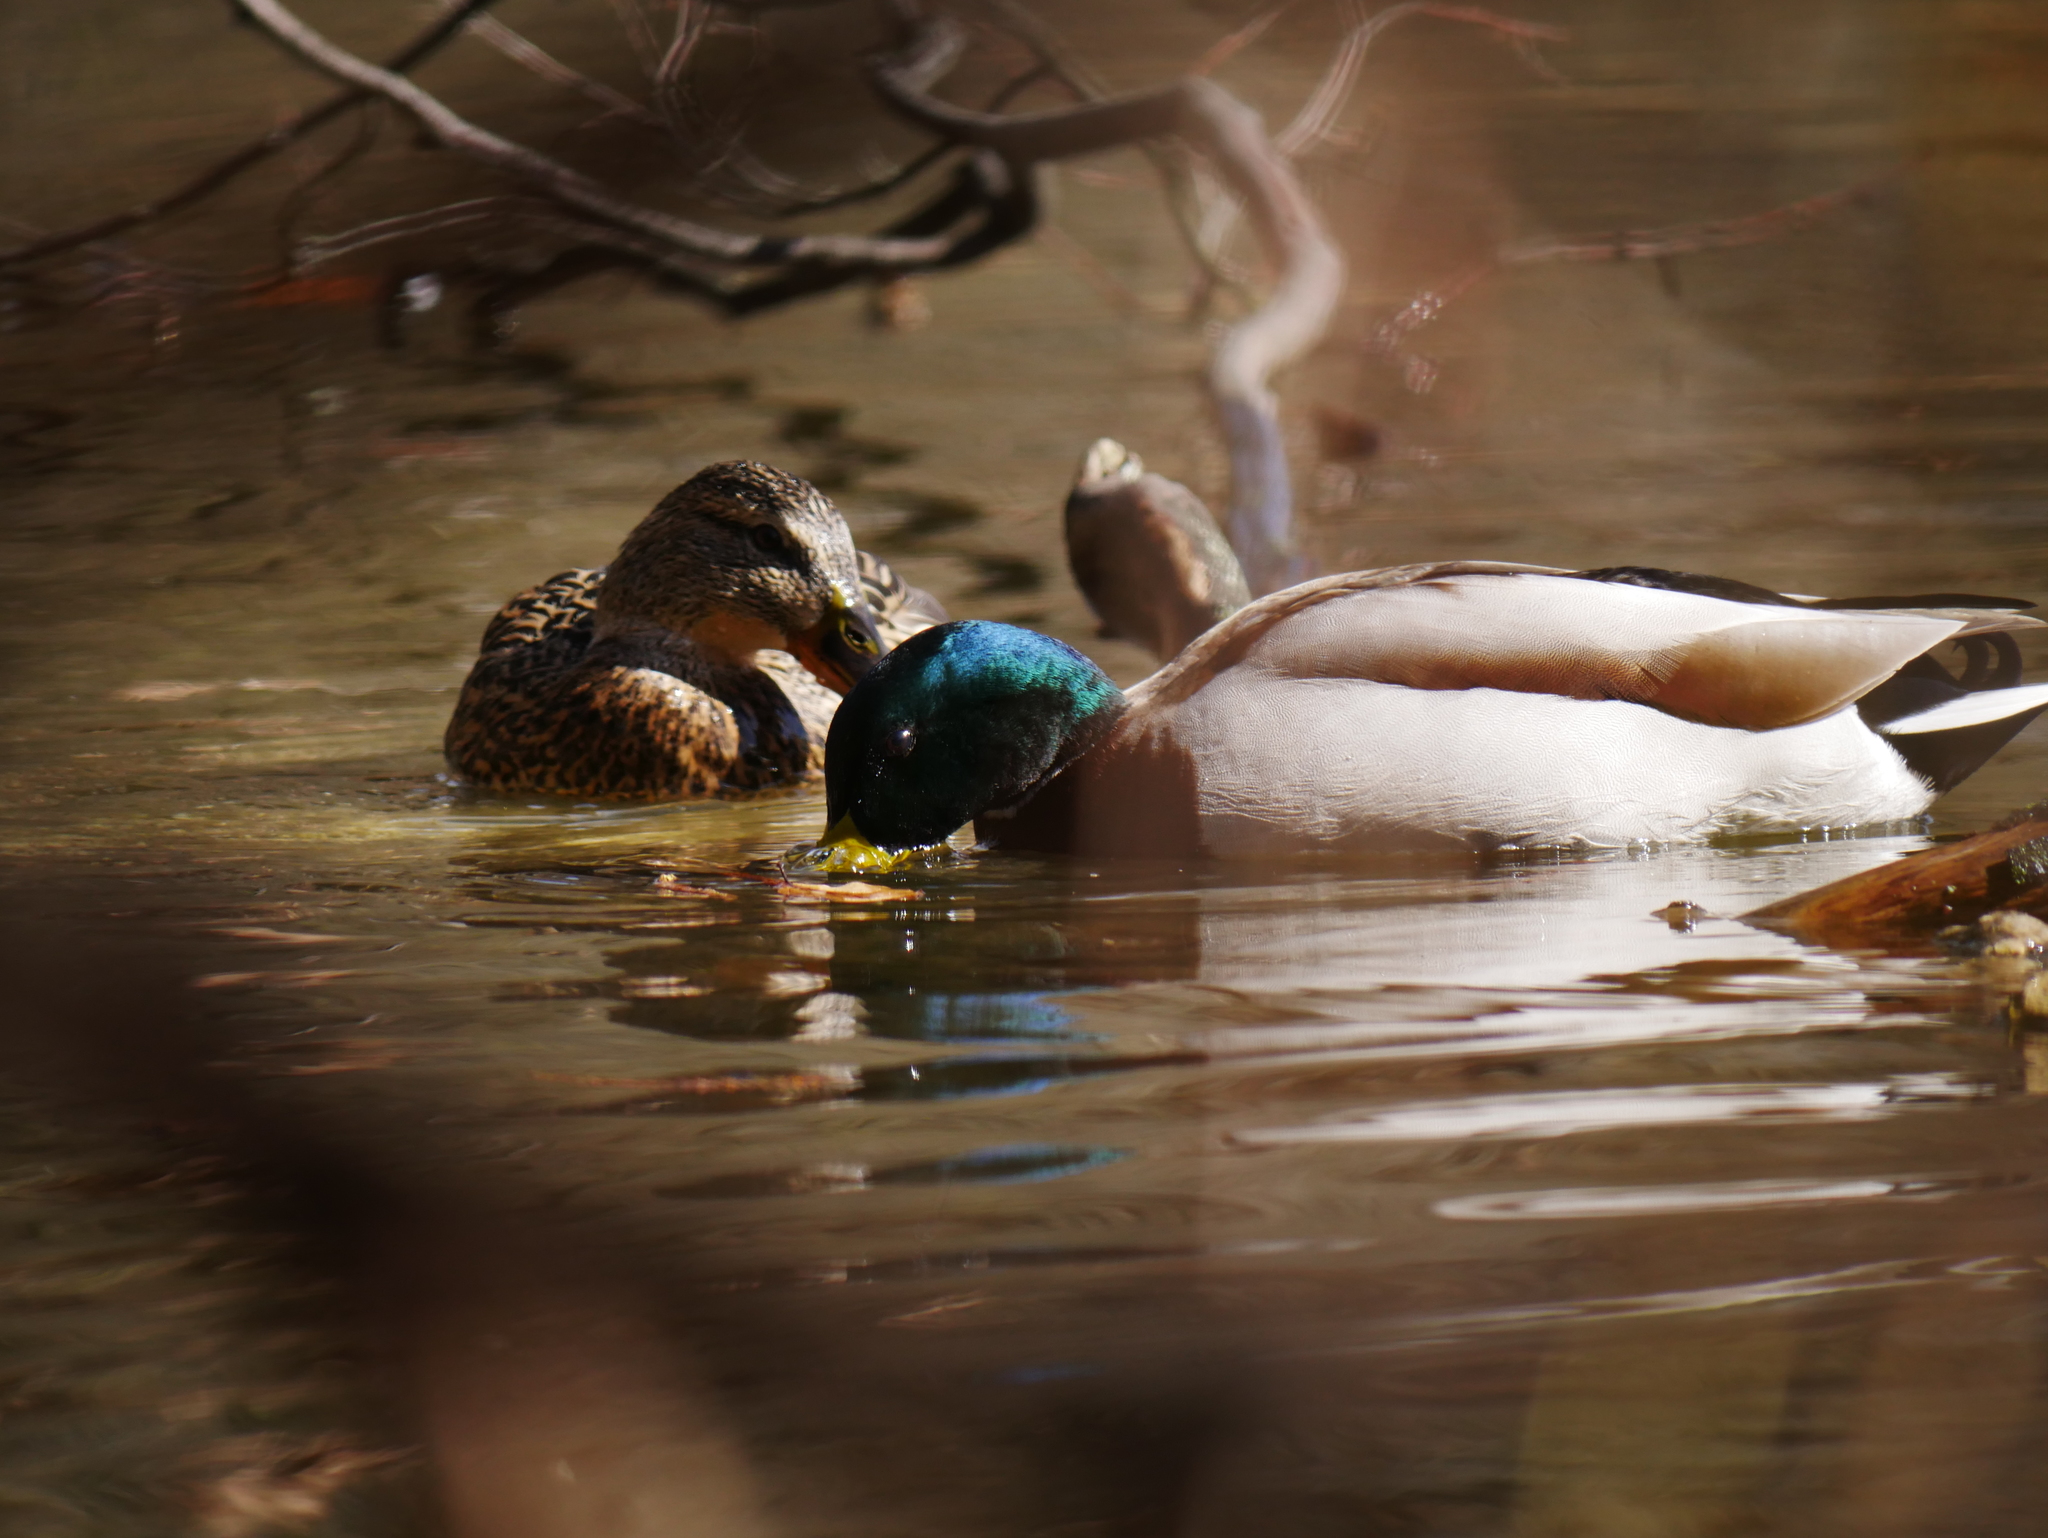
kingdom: Animalia
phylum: Chordata
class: Aves
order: Anseriformes
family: Anatidae
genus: Anas
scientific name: Anas platyrhynchos
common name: Mallard
